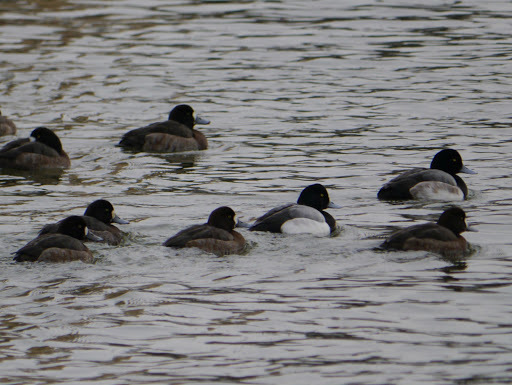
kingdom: Animalia
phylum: Chordata
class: Aves
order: Anseriformes
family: Anatidae
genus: Aythya
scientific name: Aythya marila
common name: Greater scaup
